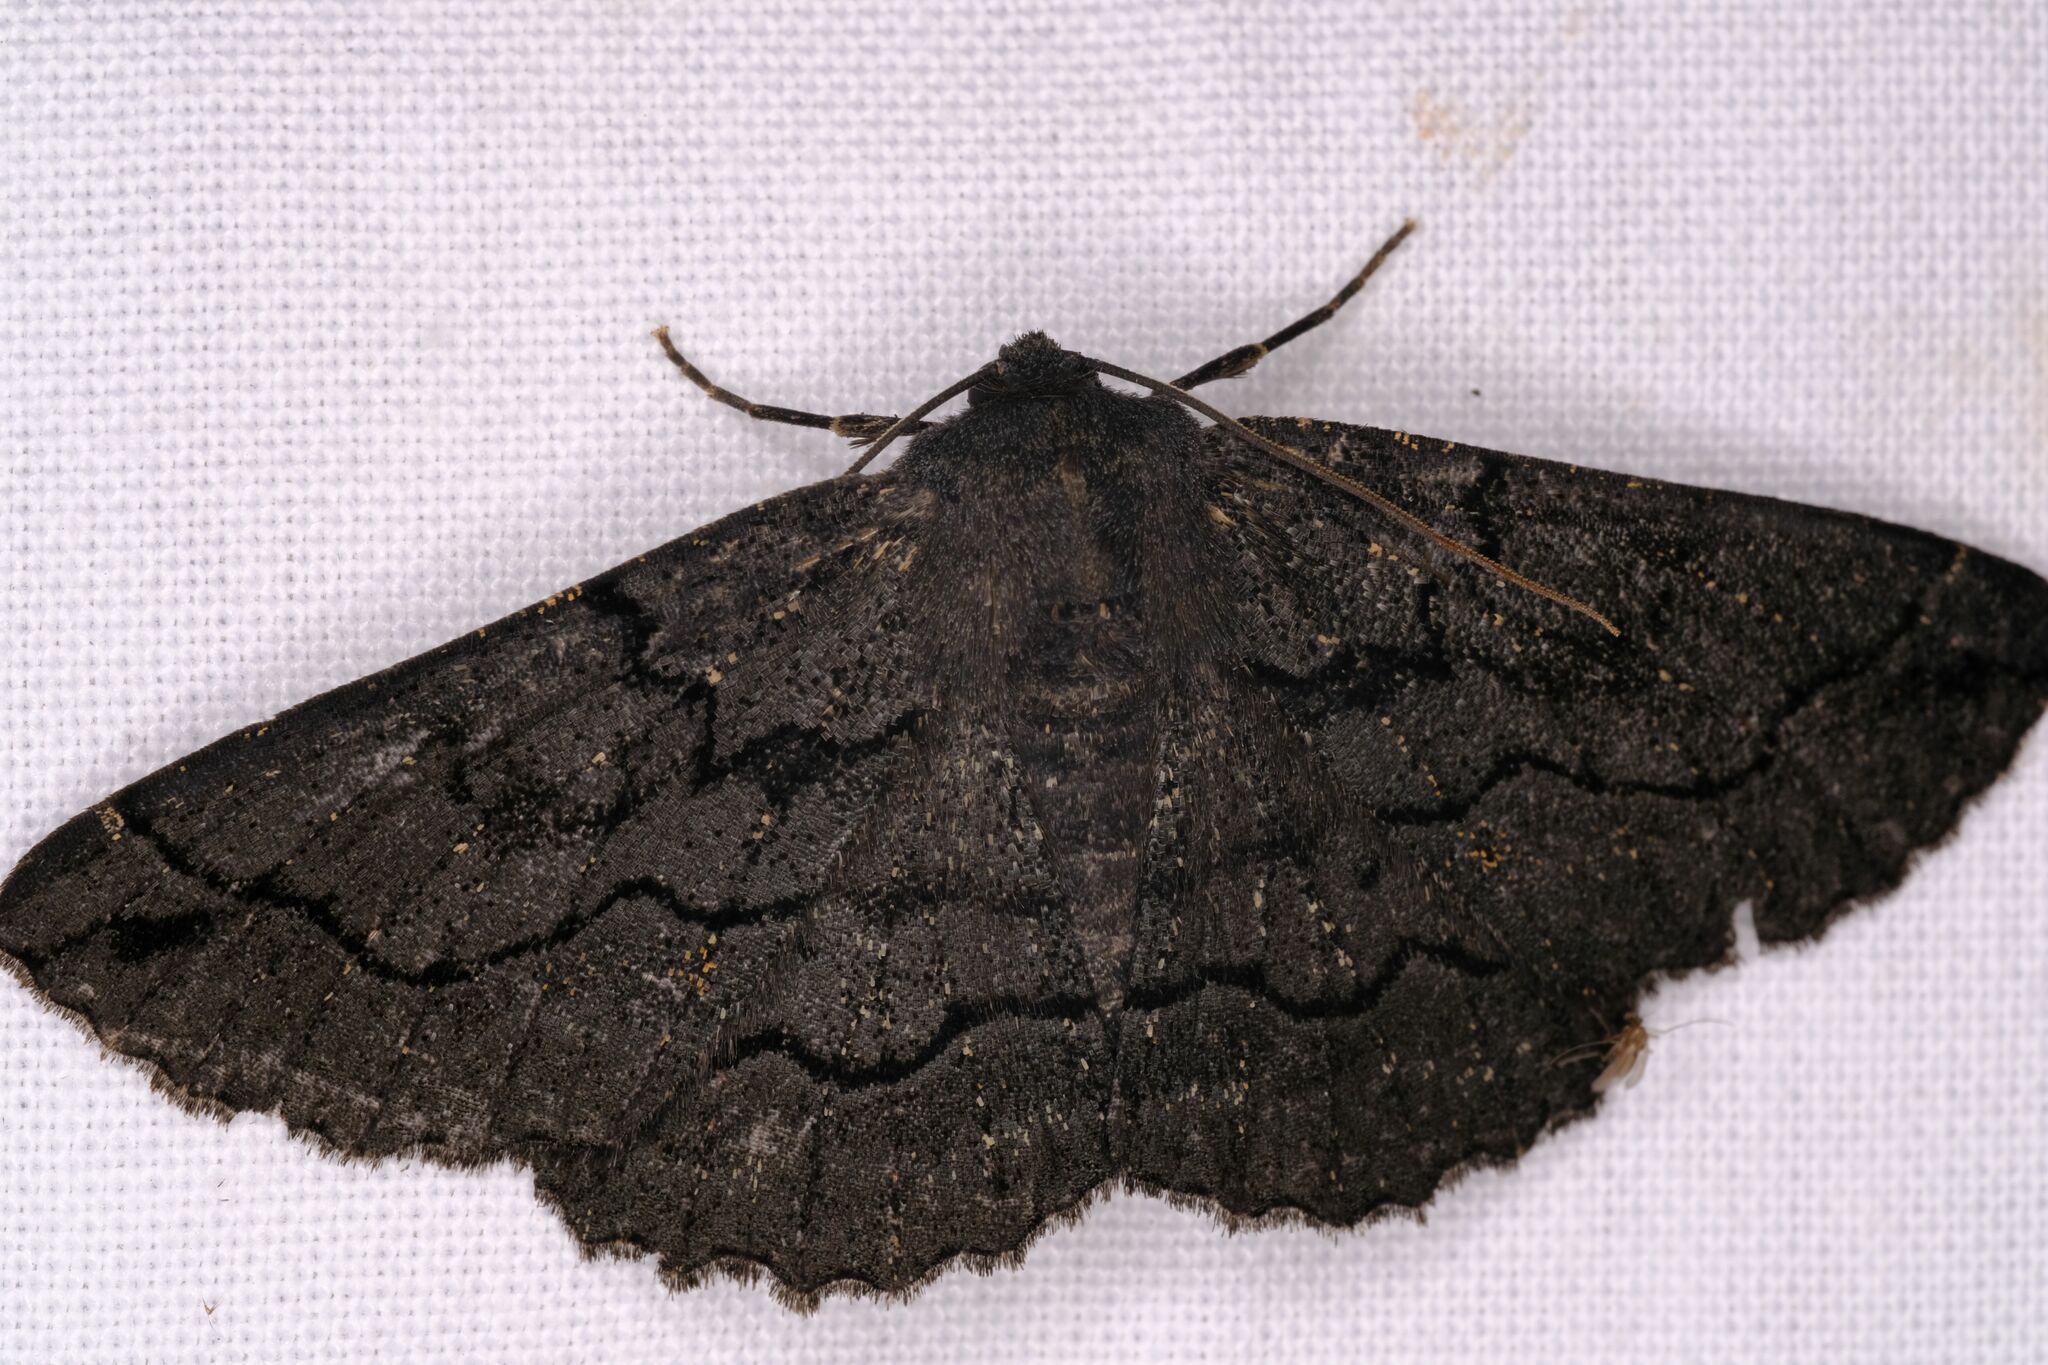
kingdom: Animalia
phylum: Arthropoda
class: Insecta
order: Lepidoptera
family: Geometridae
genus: Melanodes
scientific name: Melanodes anthracitaria
